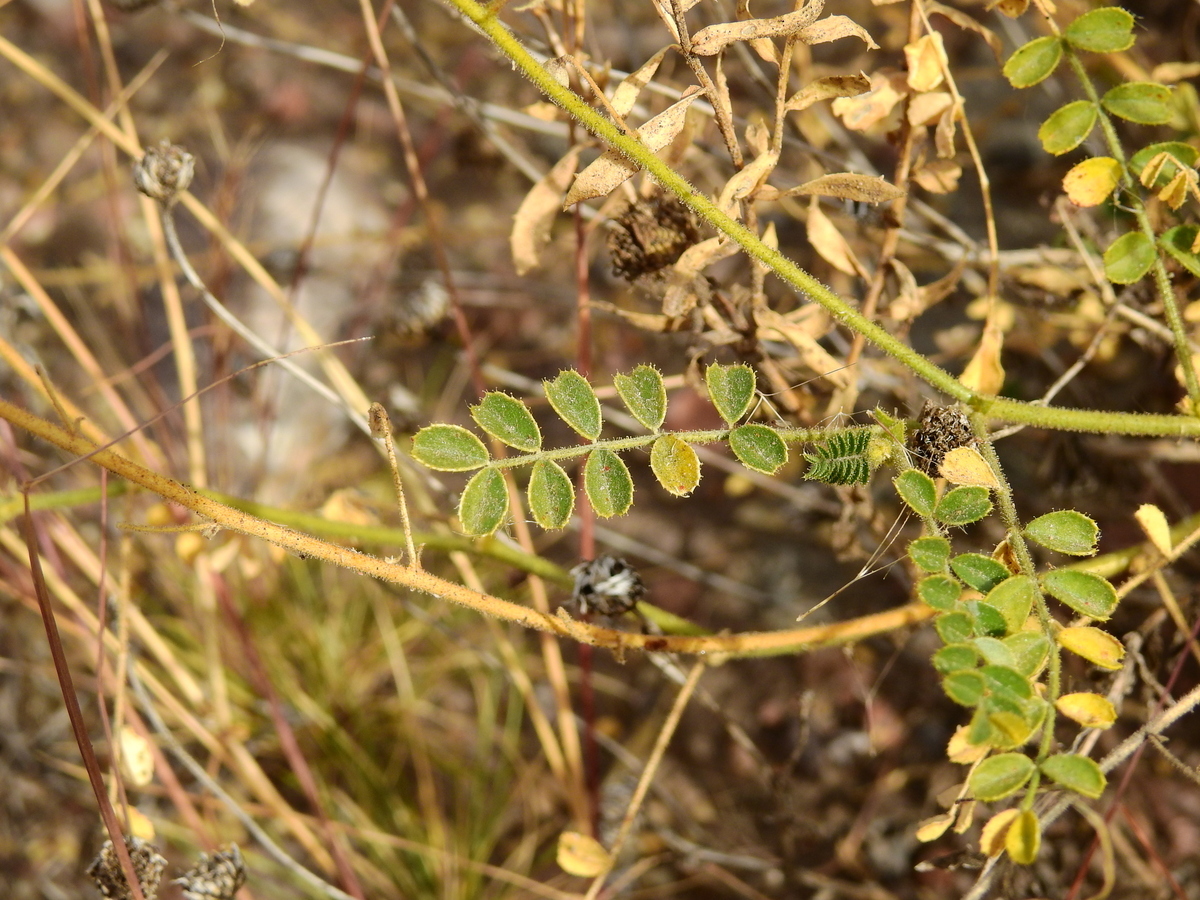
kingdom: Plantae
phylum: Tracheophyta
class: Magnoliopsida
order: Fabales
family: Fabaceae
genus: Adesmia
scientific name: Adesmia grandiflora
